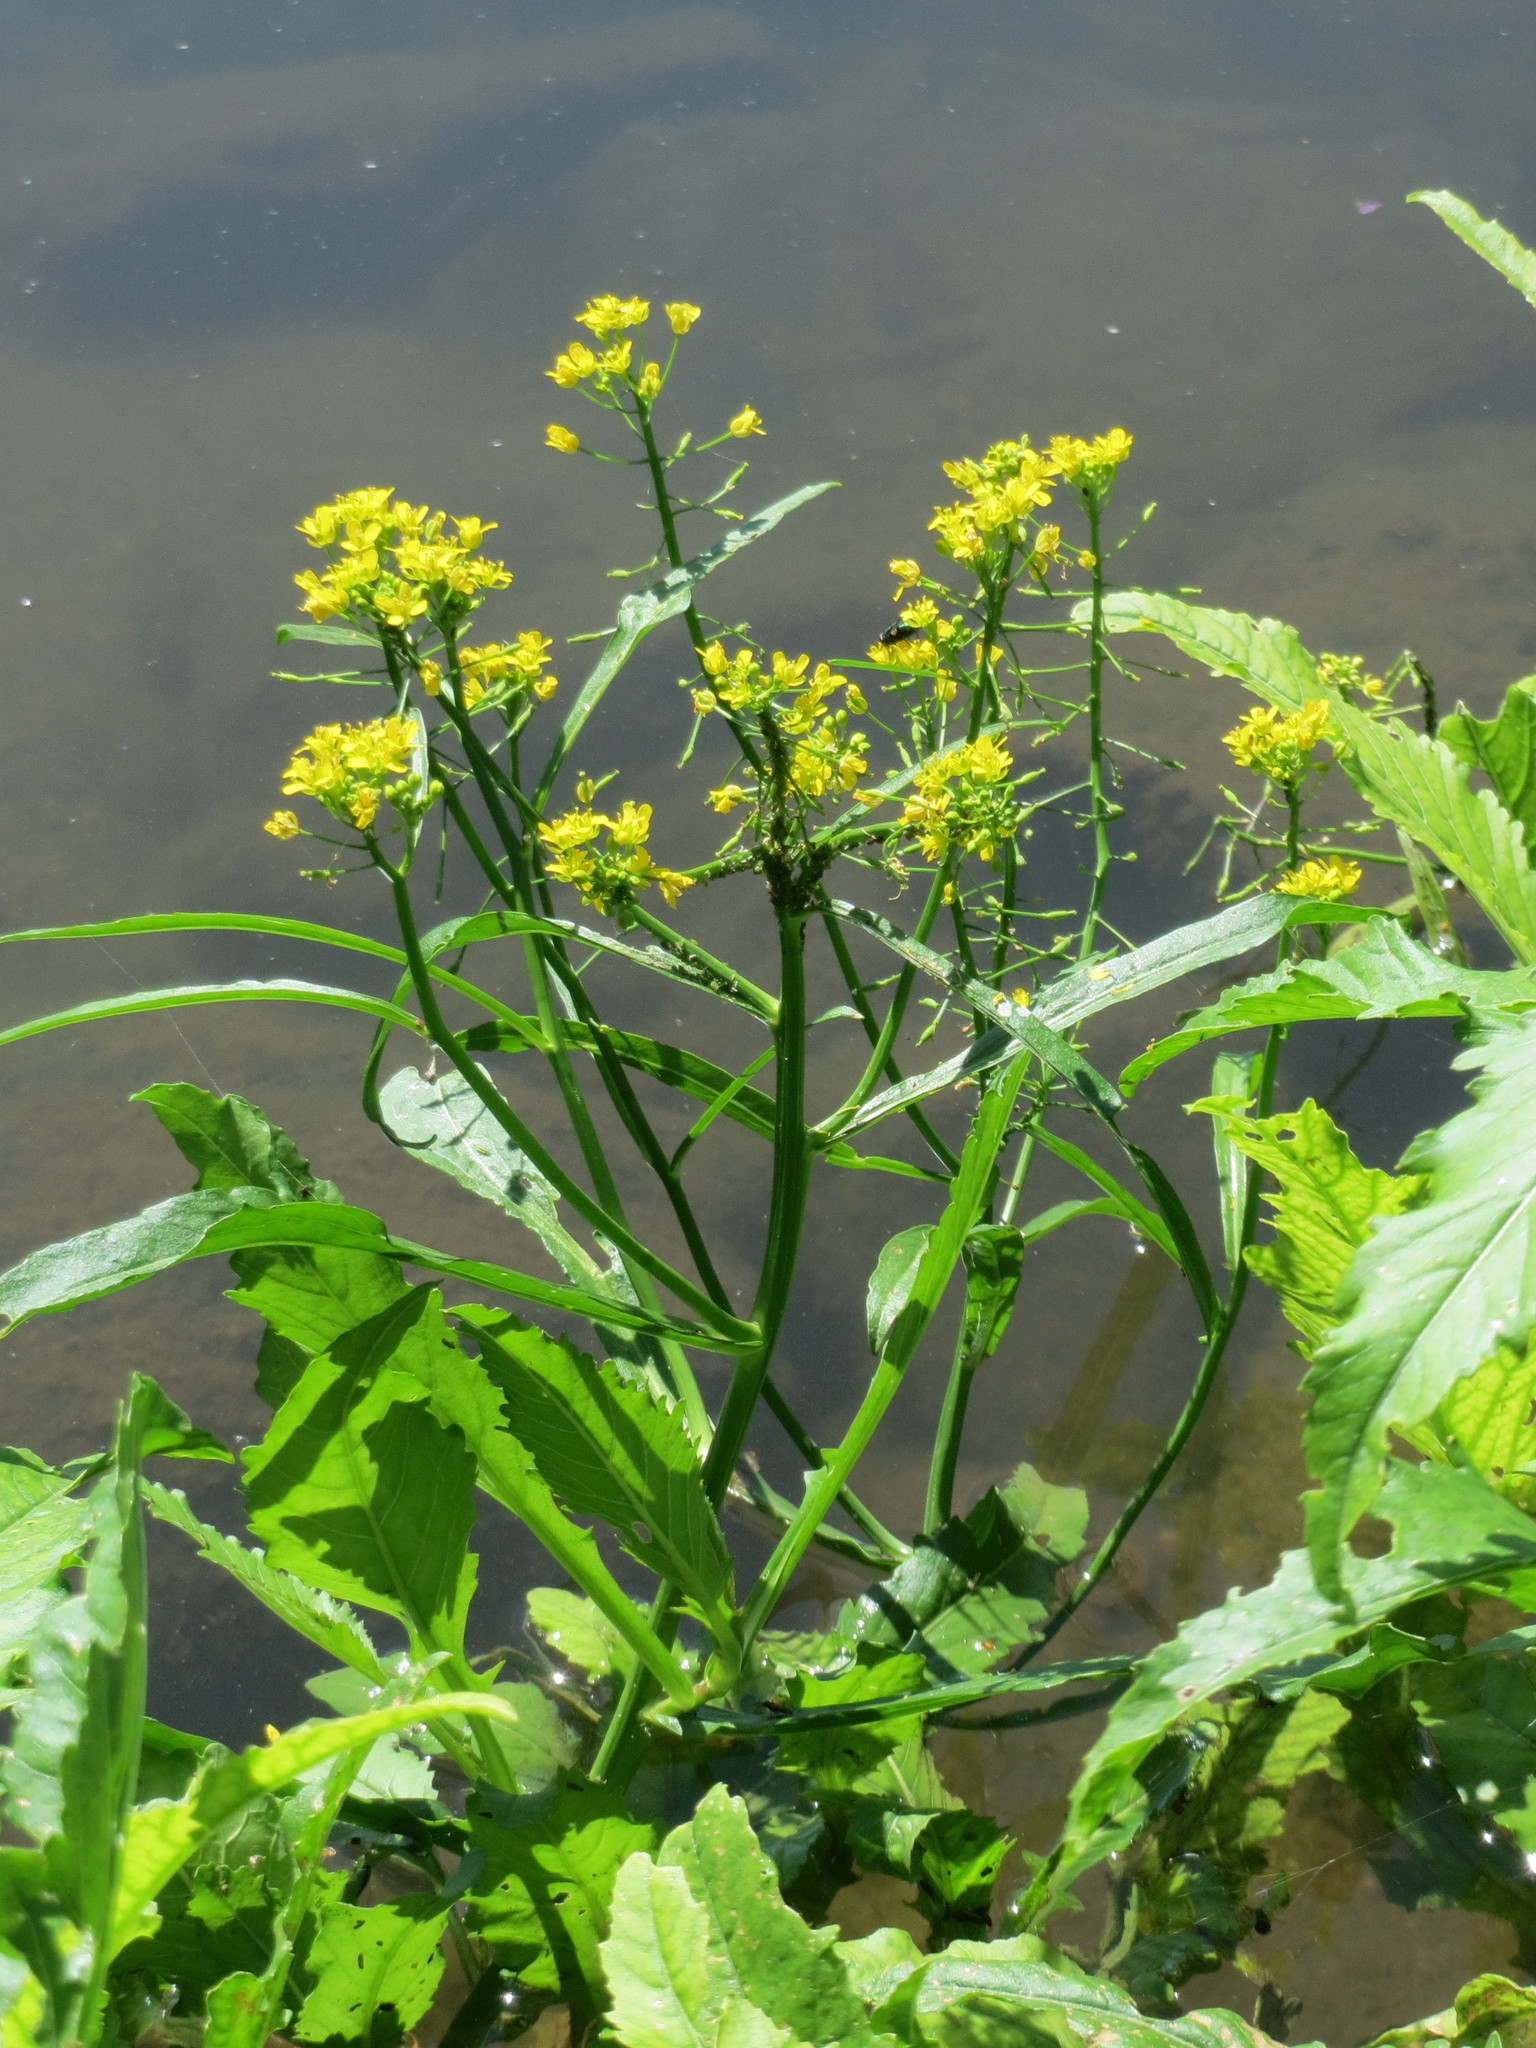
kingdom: Plantae
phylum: Tracheophyta
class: Magnoliopsida
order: Brassicales
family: Brassicaceae
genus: Rorippa
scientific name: Rorippa amphibia
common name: Great yellow-cress
